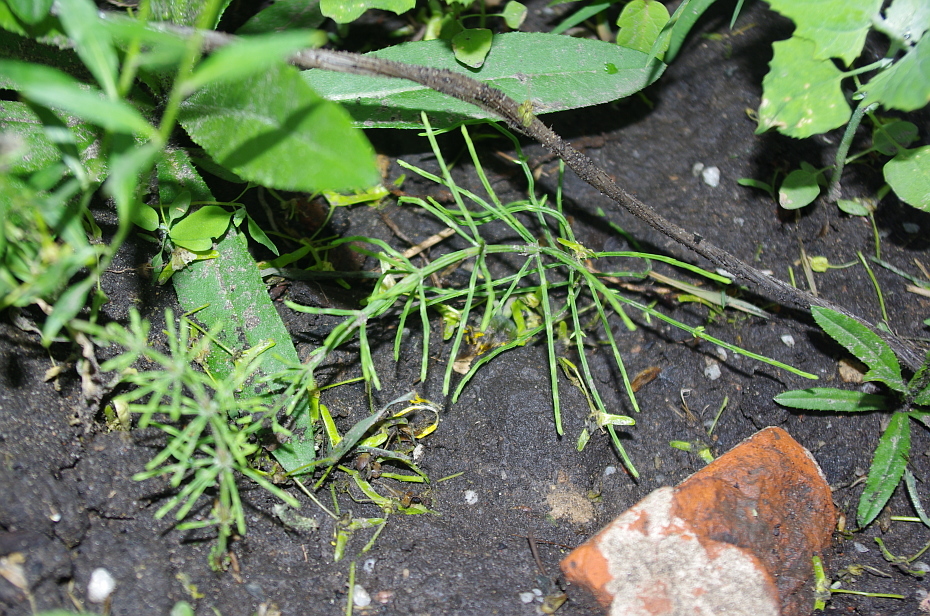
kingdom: Plantae
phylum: Tracheophyta
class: Polypodiopsida
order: Equisetales
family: Equisetaceae
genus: Equisetum
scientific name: Equisetum arvense
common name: Field horsetail
